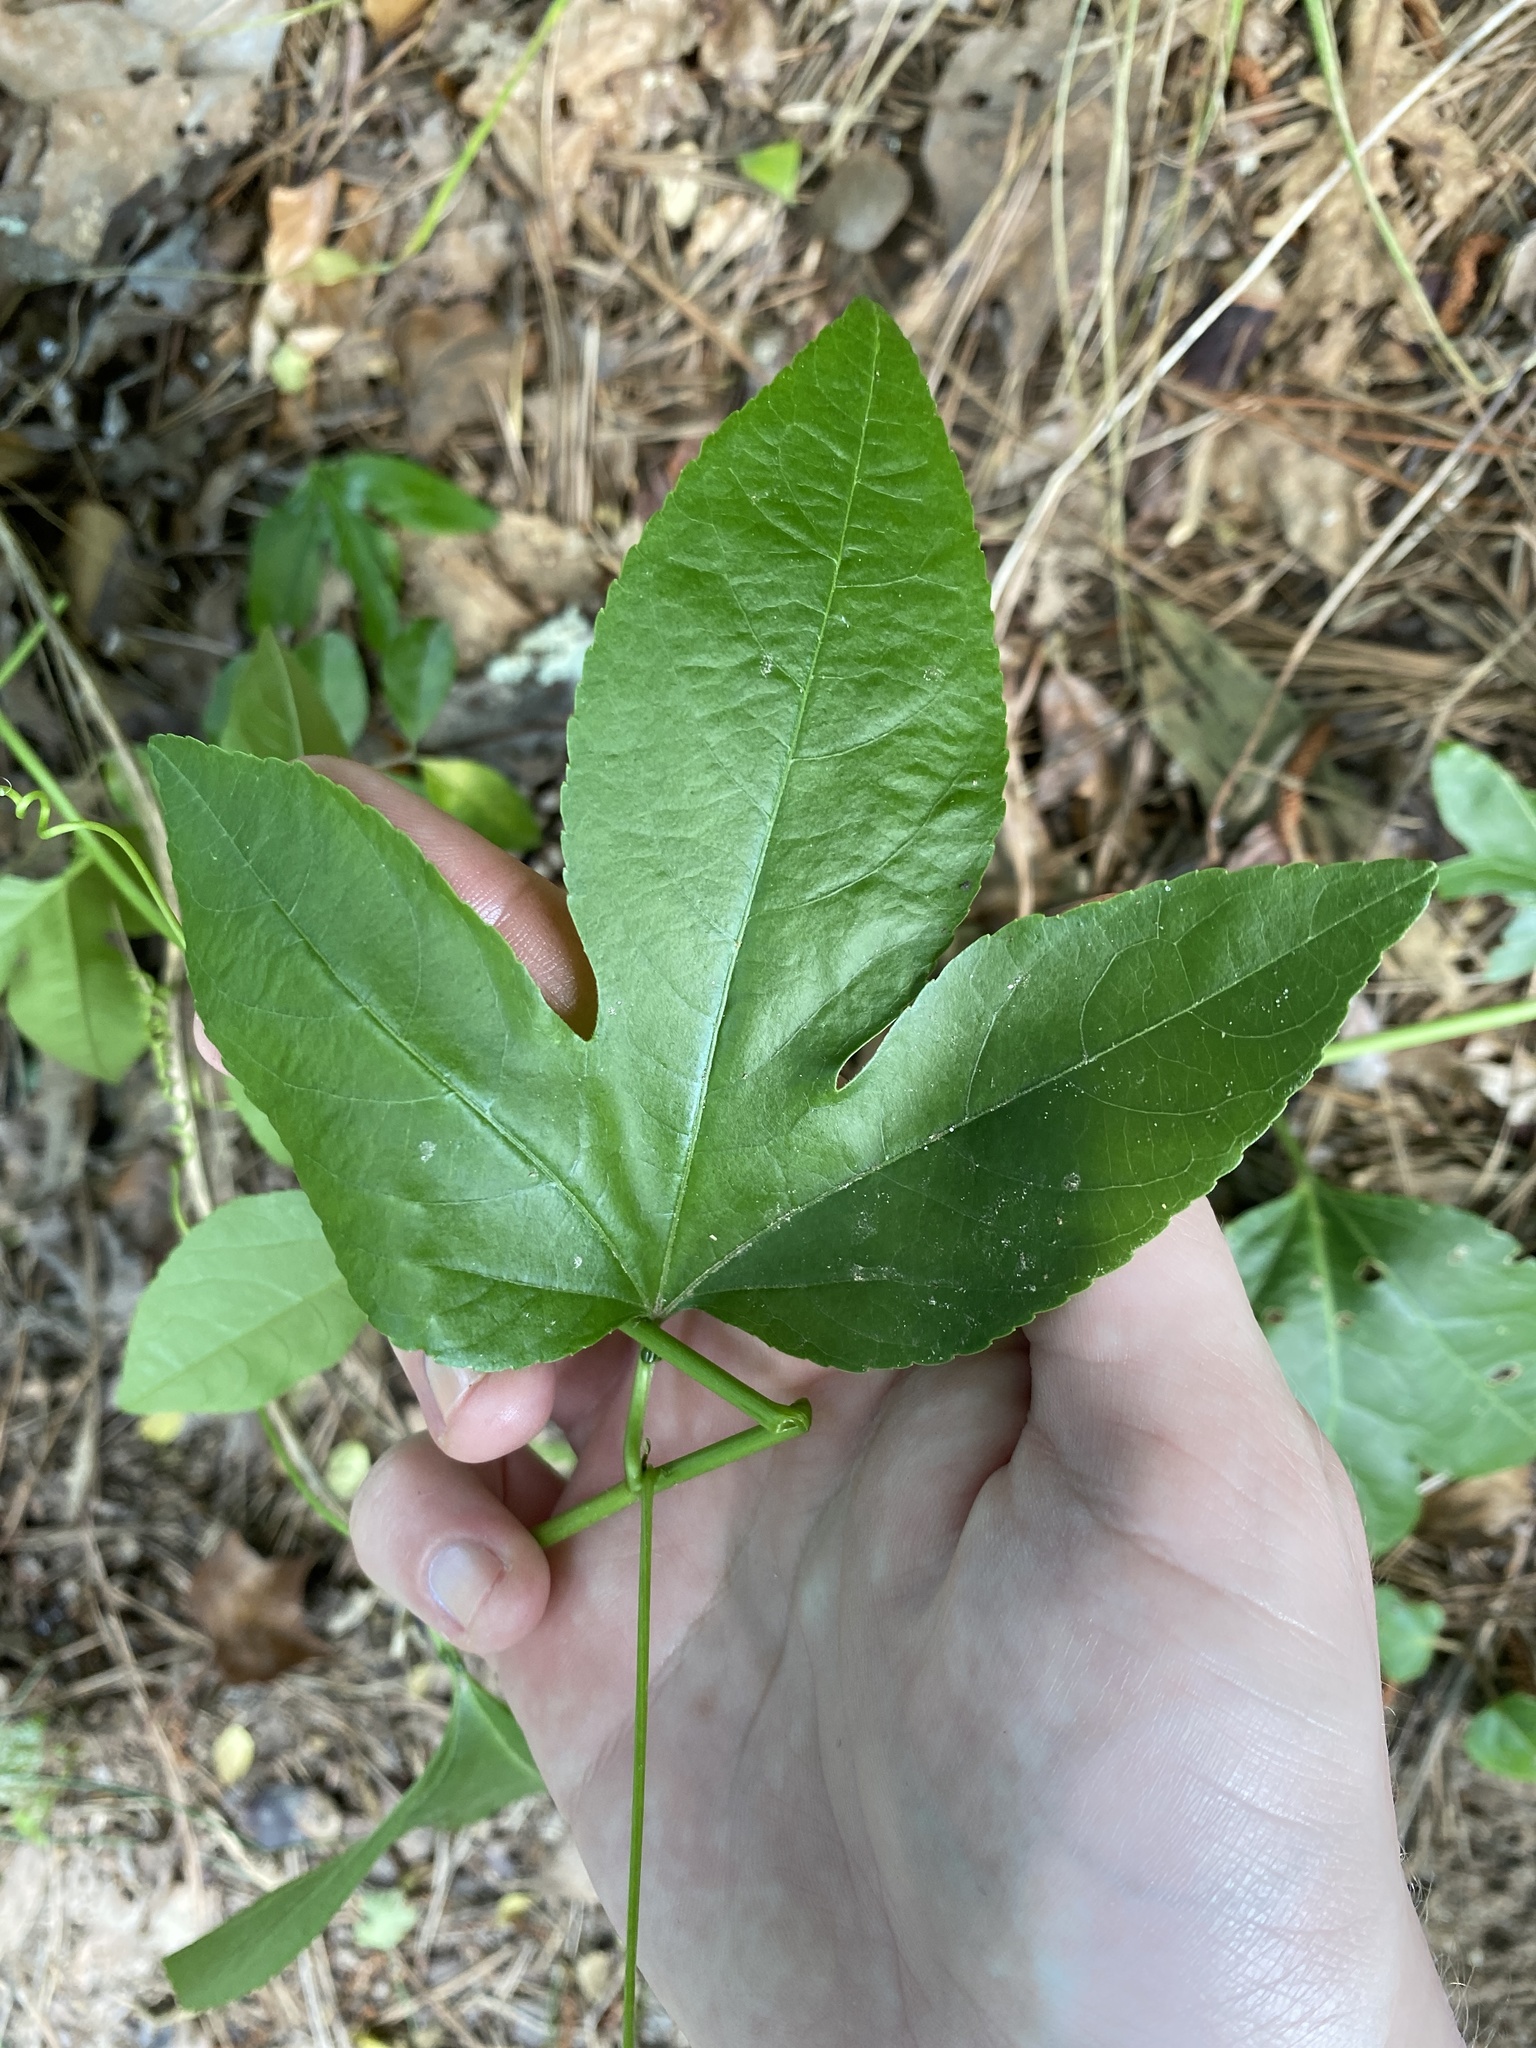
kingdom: Plantae
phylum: Tracheophyta
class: Magnoliopsida
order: Malpighiales
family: Passifloraceae
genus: Passiflora
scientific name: Passiflora incarnata
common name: Apricot-vine
